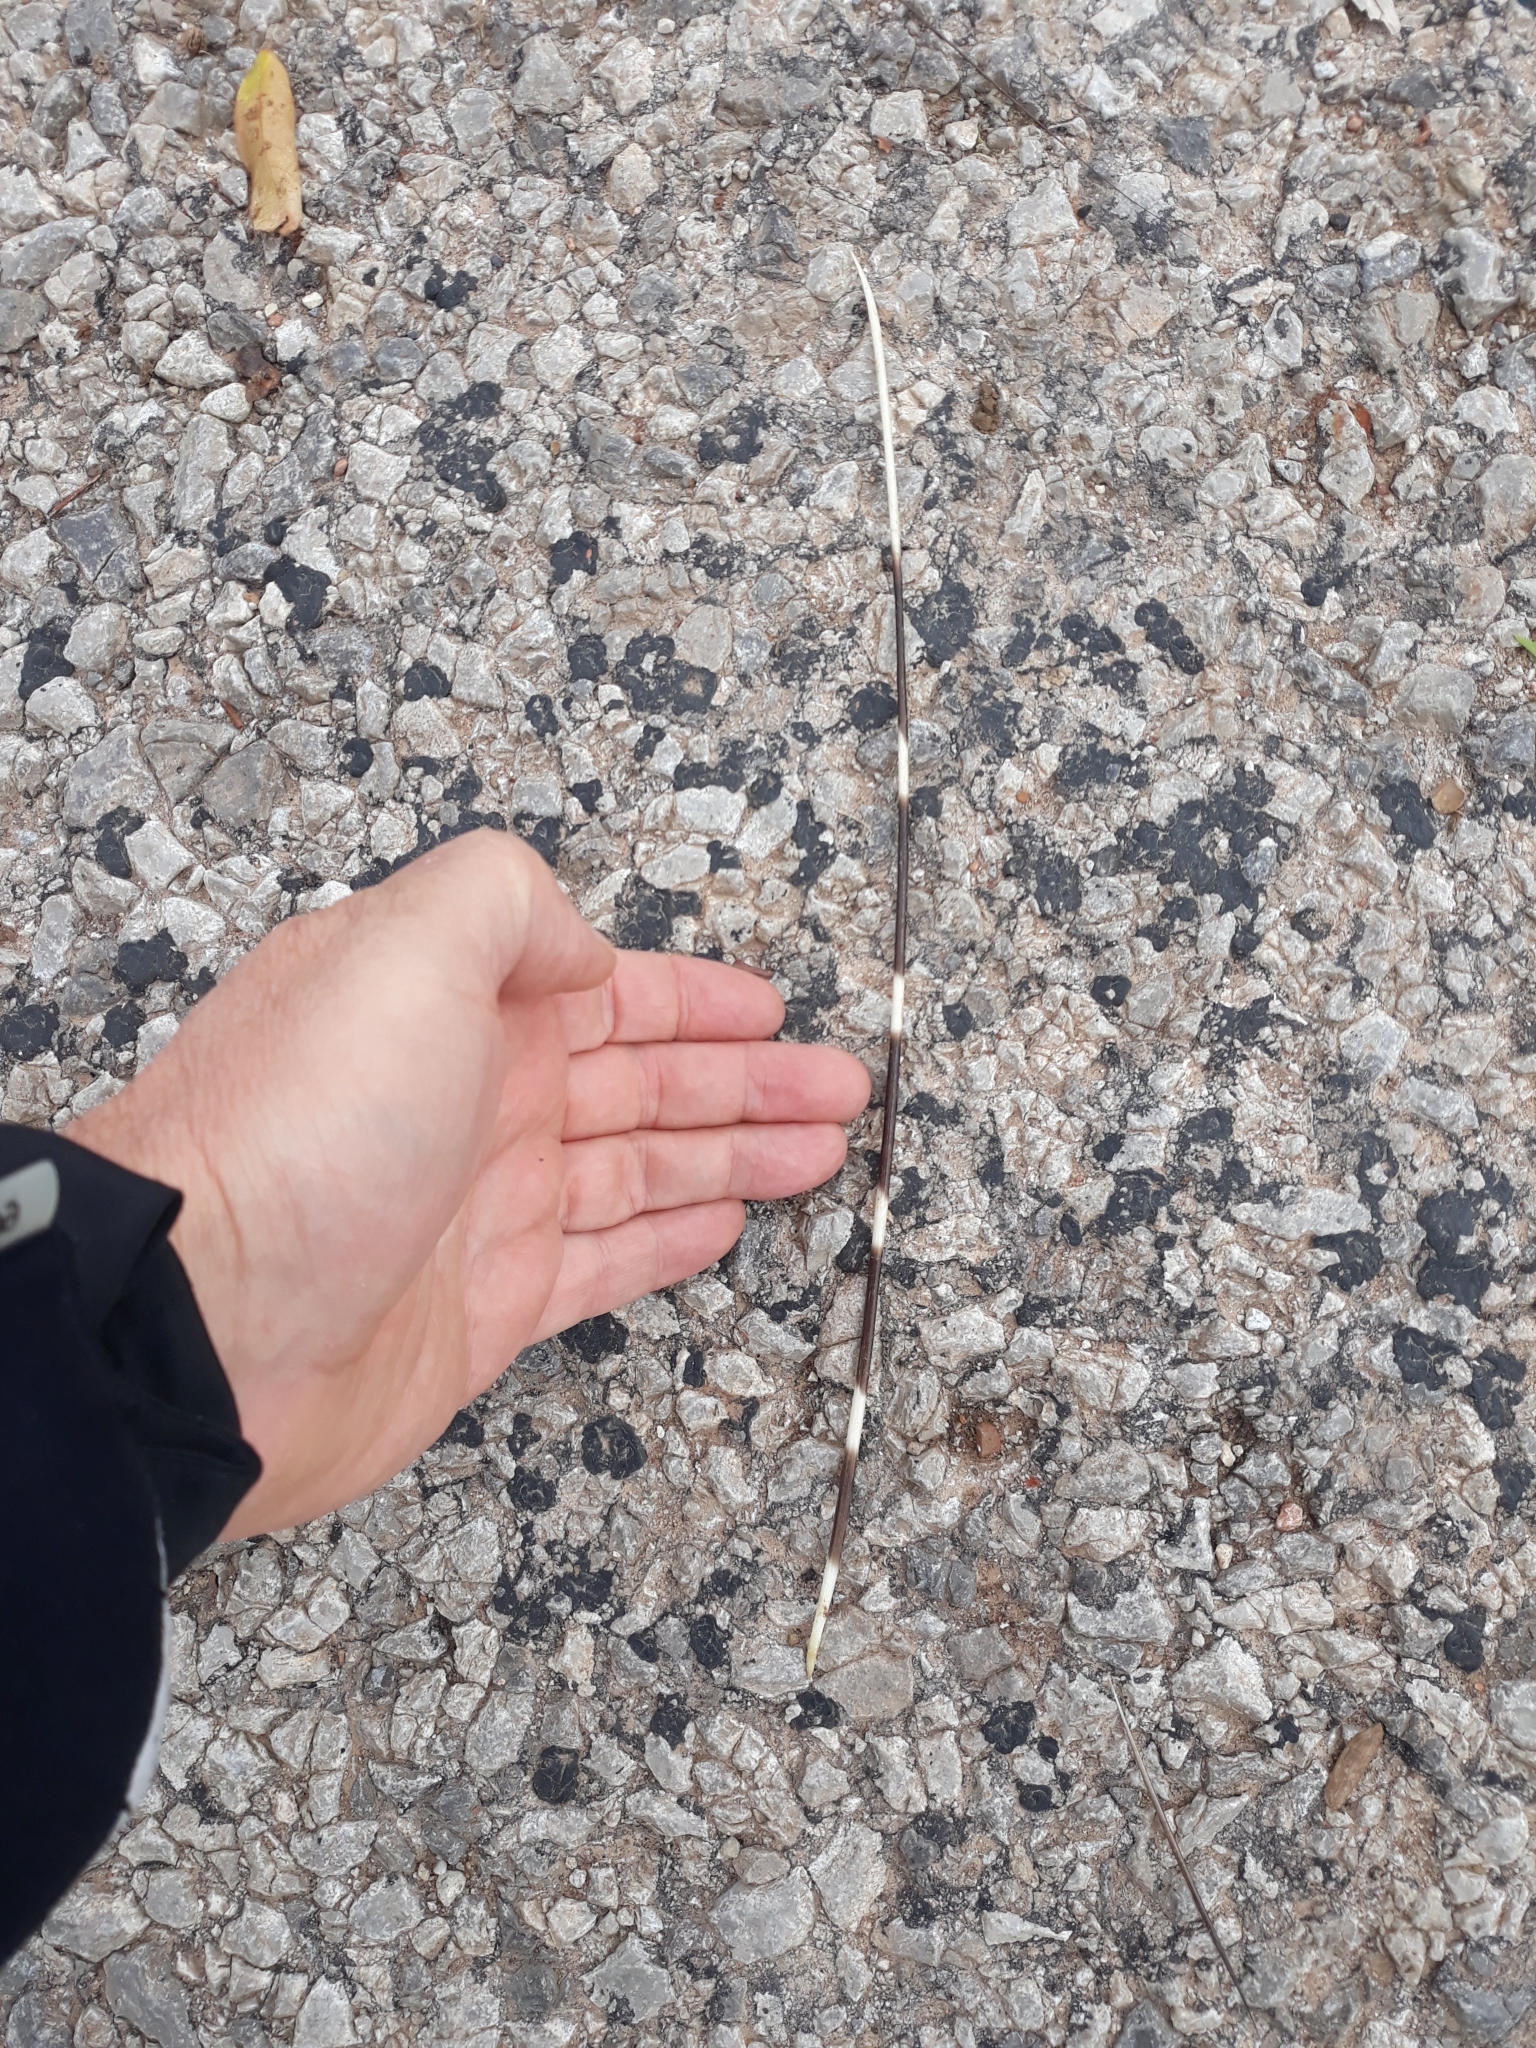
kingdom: Animalia
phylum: Chordata
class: Mammalia
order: Rodentia
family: Hystricidae
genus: Hystrix
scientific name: Hystrix cristata
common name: Crested porcupine
